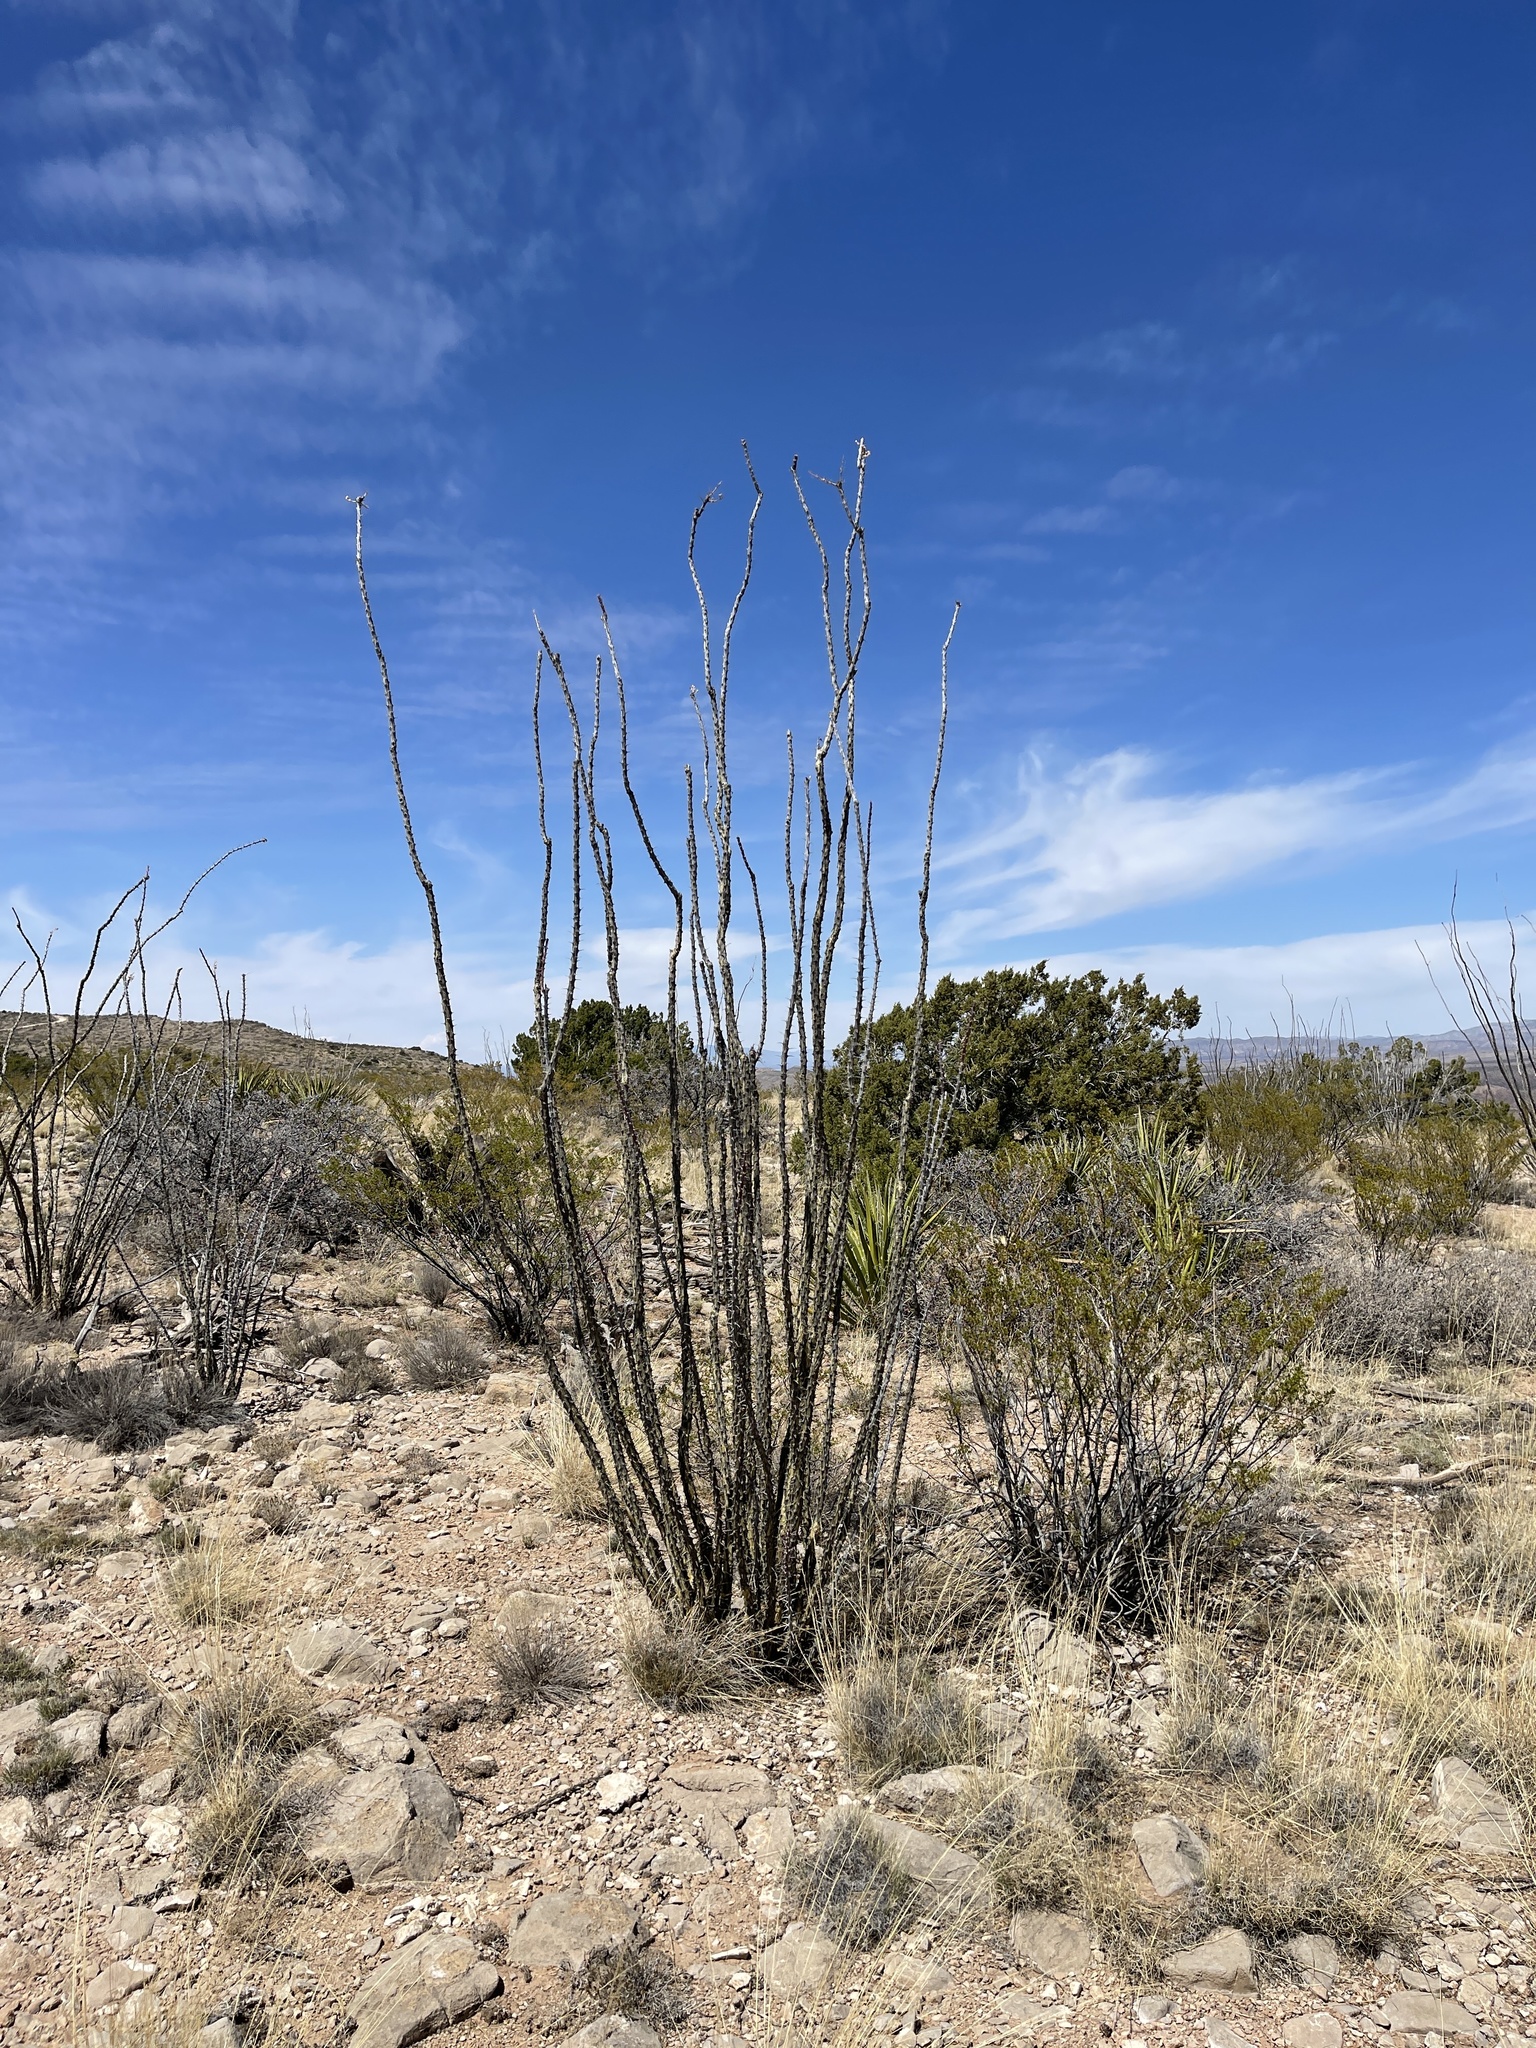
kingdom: Plantae
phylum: Tracheophyta
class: Magnoliopsida
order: Ericales
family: Fouquieriaceae
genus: Fouquieria
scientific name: Fouquieria splendens
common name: Vine-cactus
